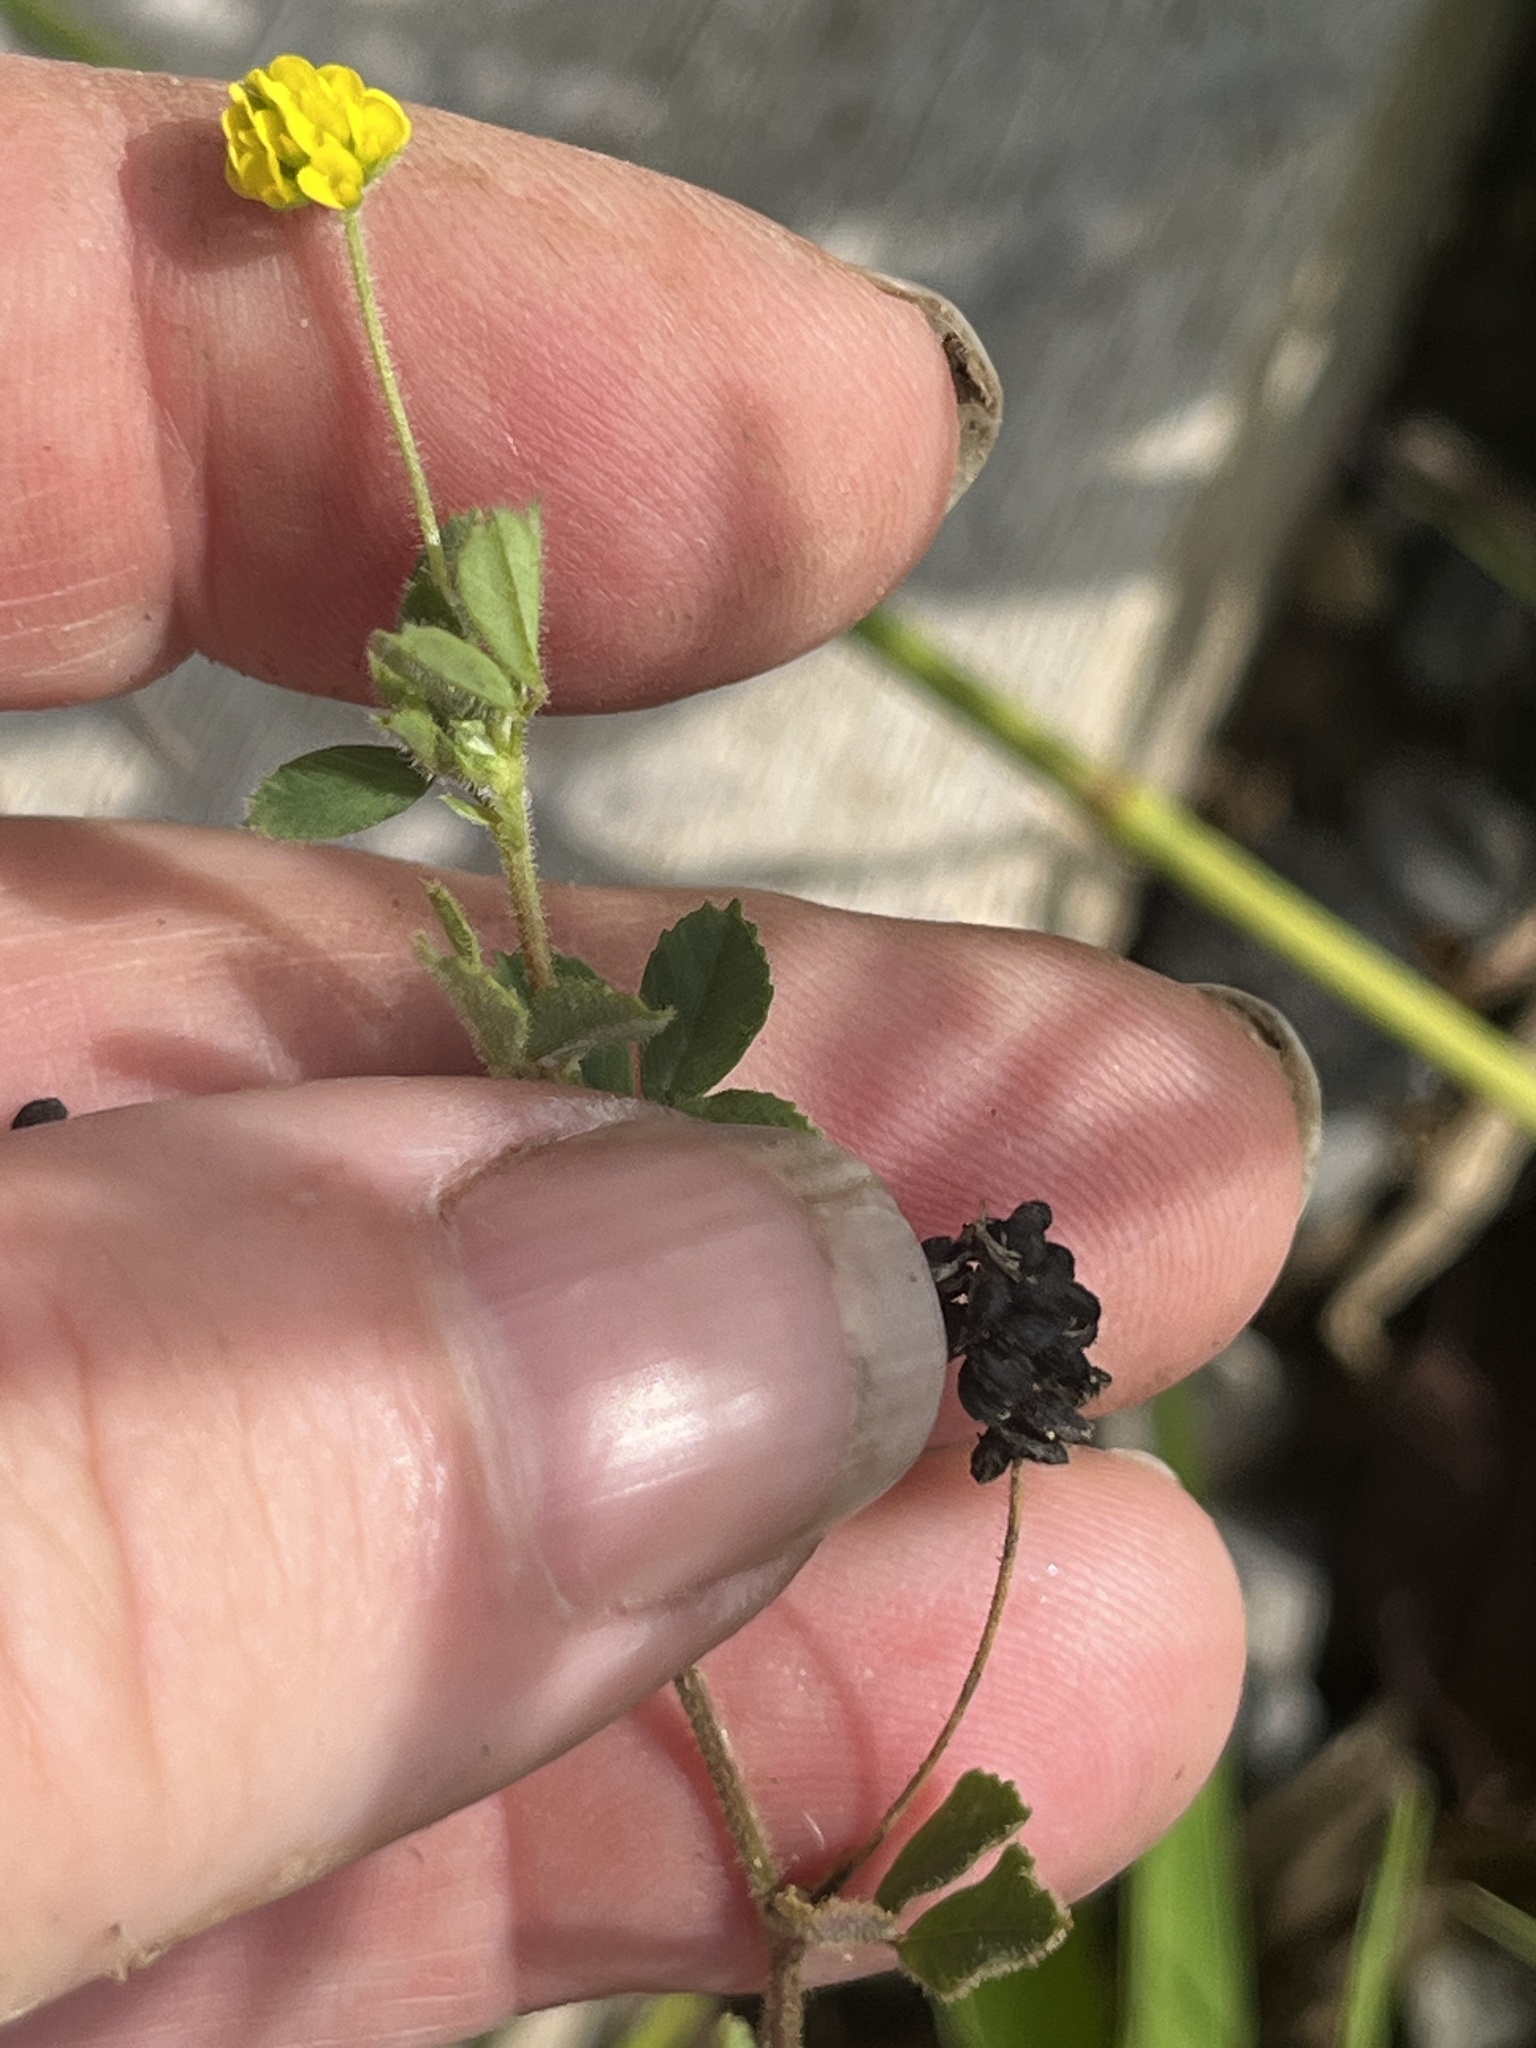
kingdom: Plantae
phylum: Tracheophyta
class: Magnoliopsida
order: Fabales
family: Fabaceae
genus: Medicago
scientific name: Medicago lupulina
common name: Black medick
